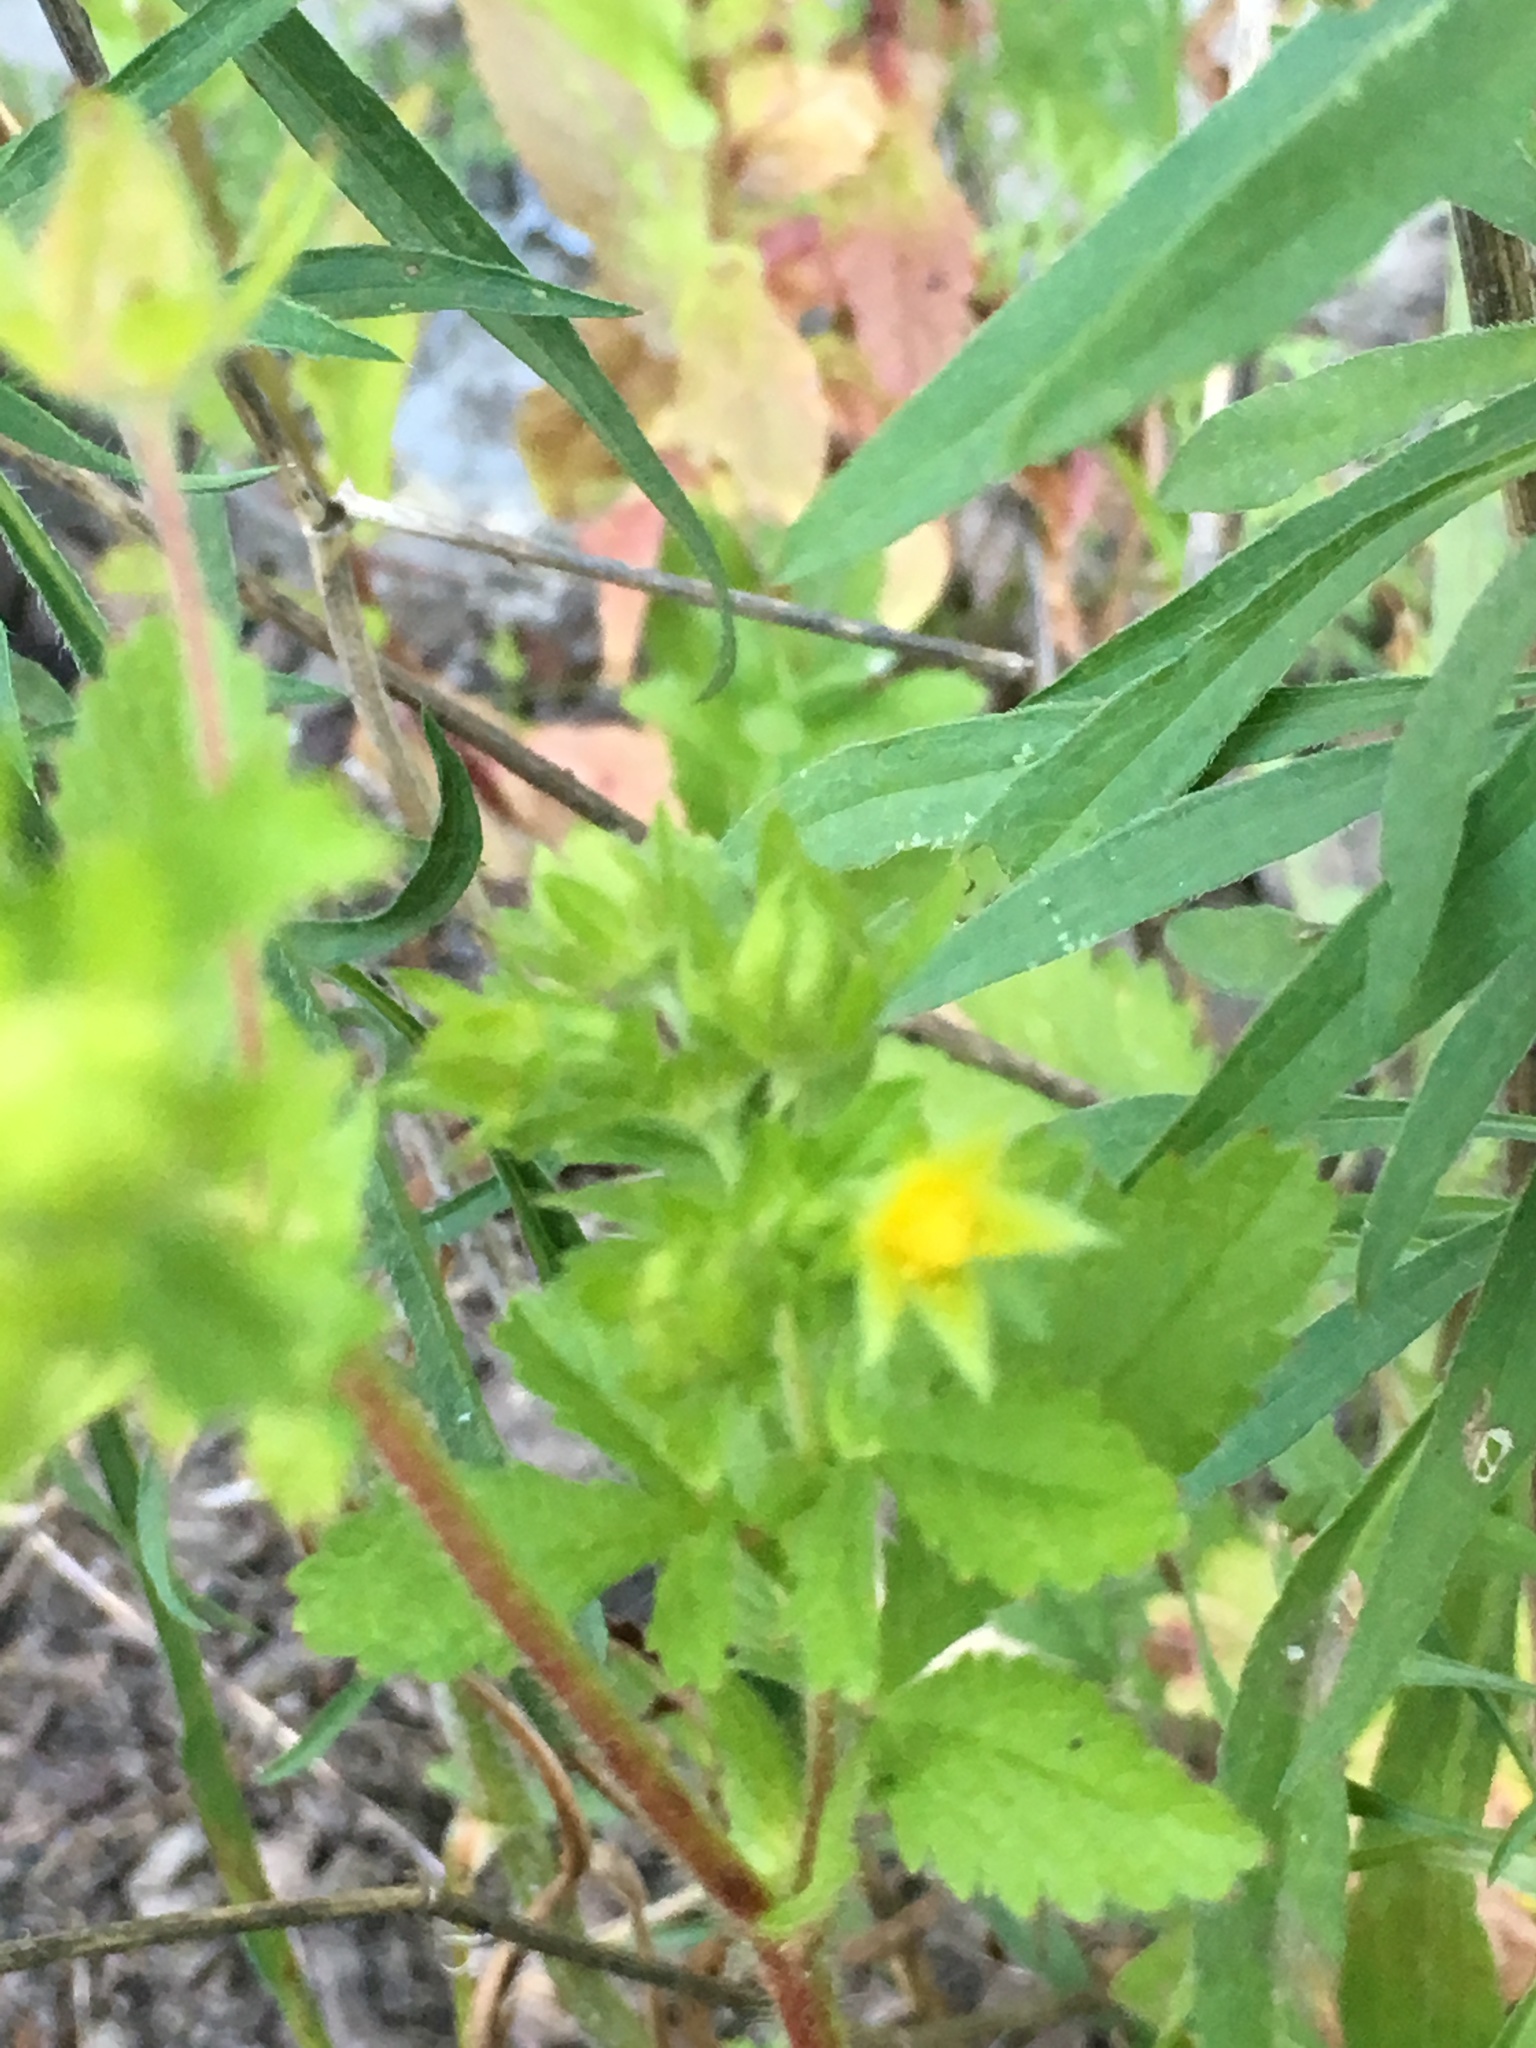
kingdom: Plantae
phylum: Tracheophyta
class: Magnoliopsida
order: Rosales
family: Rosaceae
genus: Potentilla
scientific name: Potentilla norvegica
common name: Ternate-leaved cinquefoil
